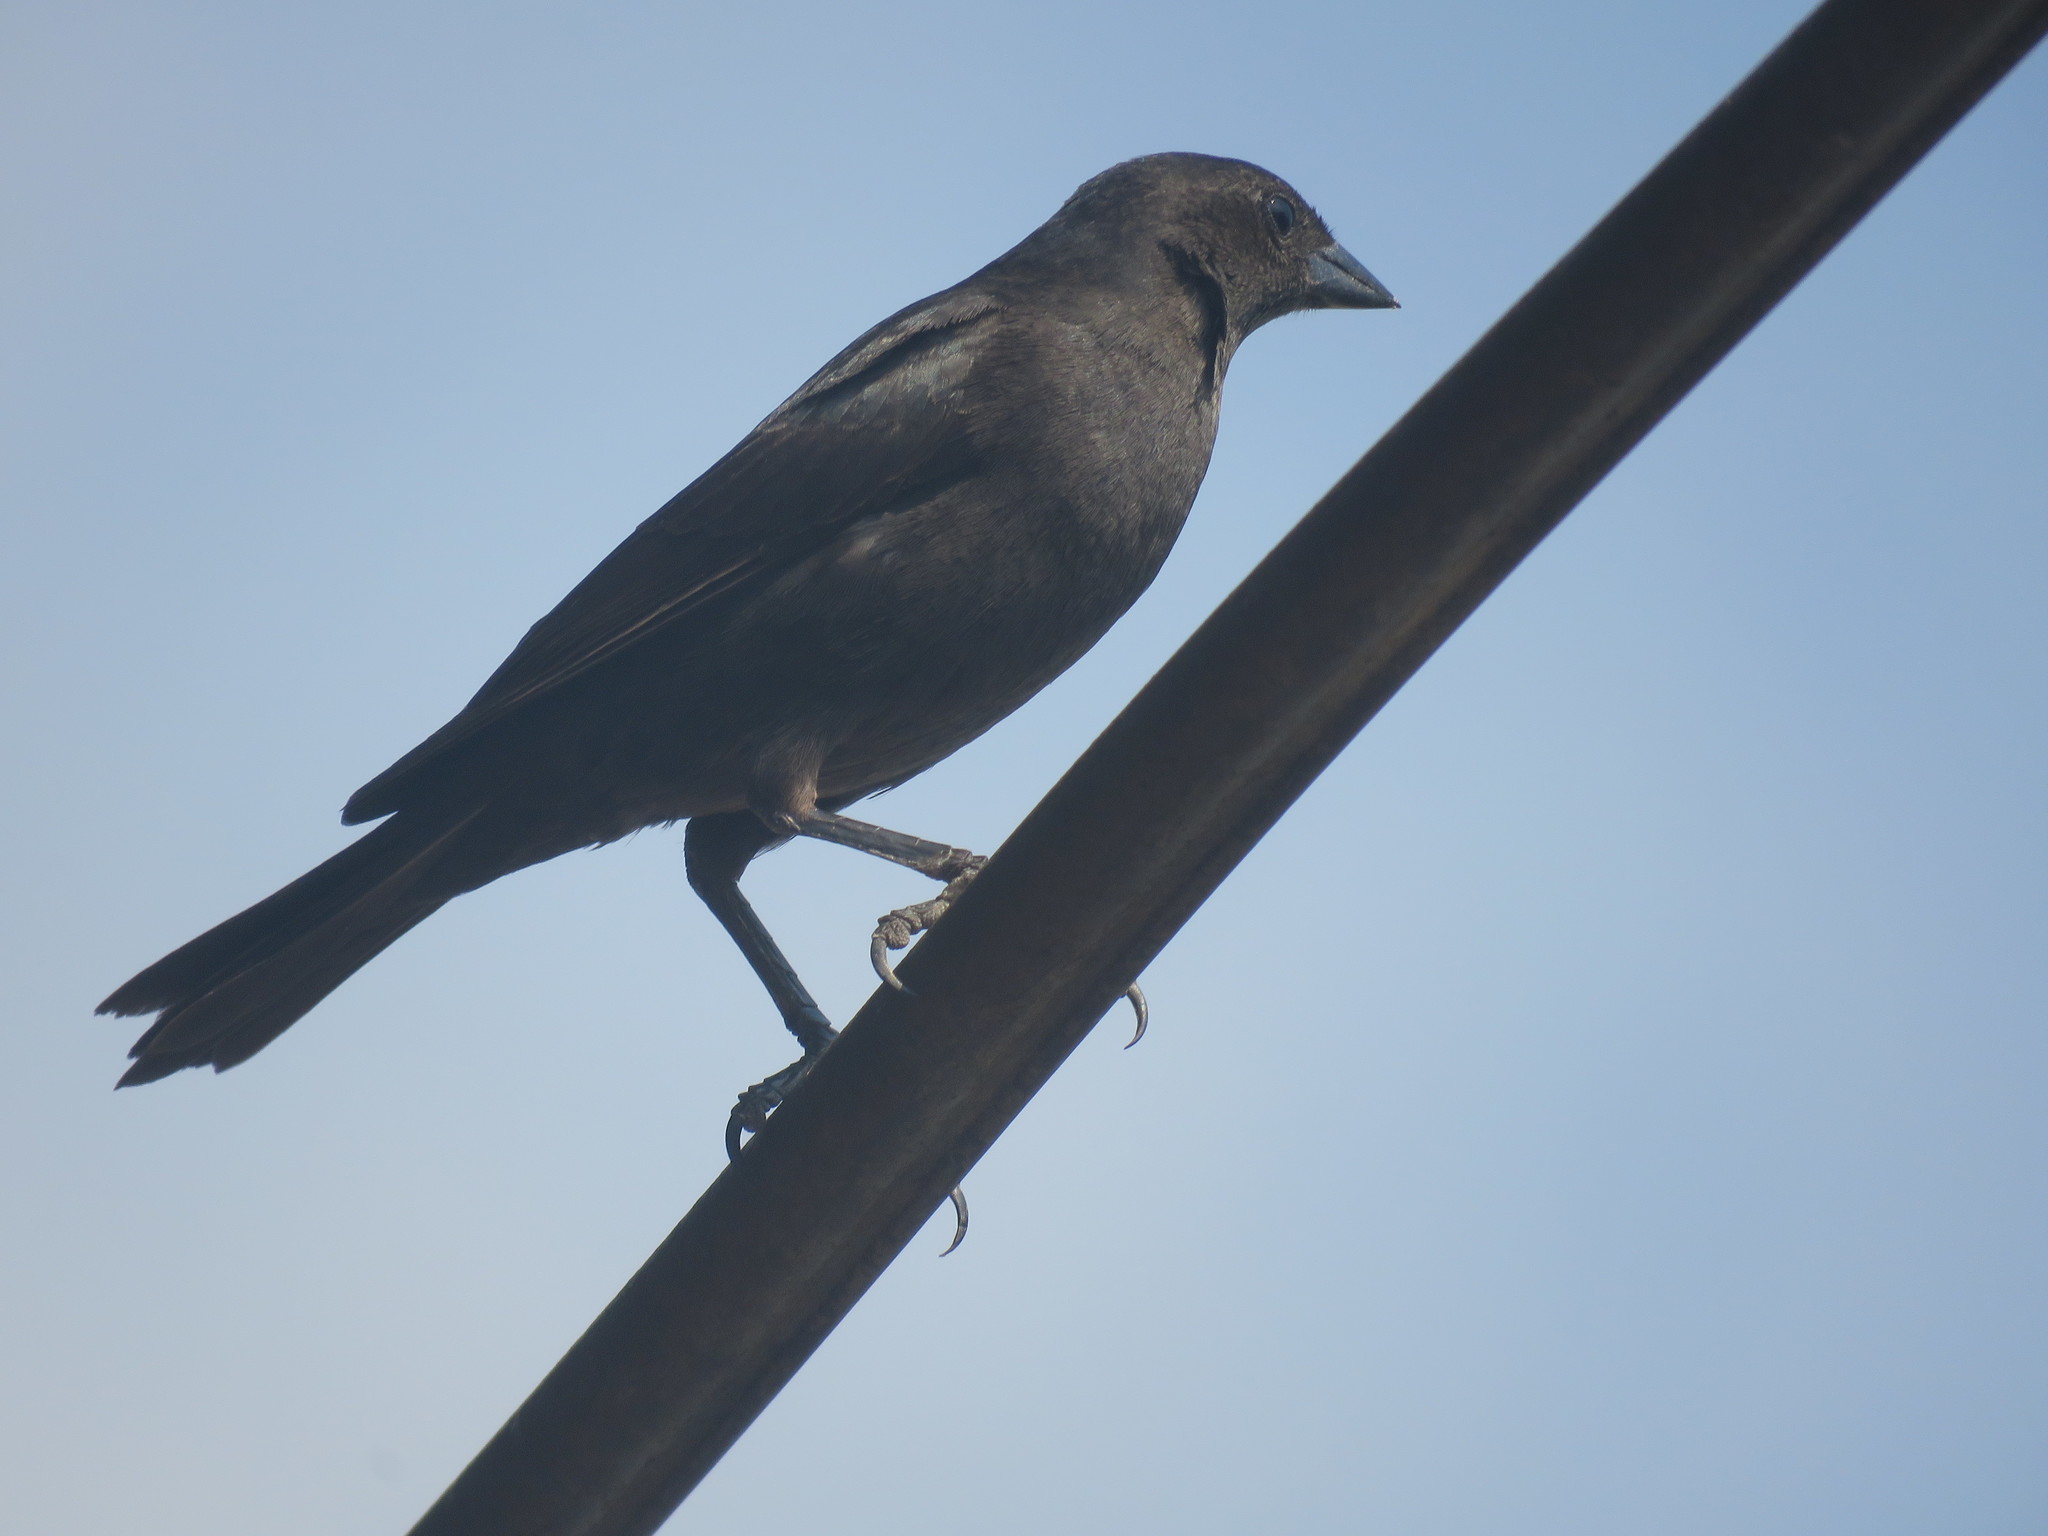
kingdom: Animalia
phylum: Chordata
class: Aves
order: Passeriformes
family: Icteridae
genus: Molothrus
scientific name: Molothrus bonariensis
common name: Shiny cowbird
